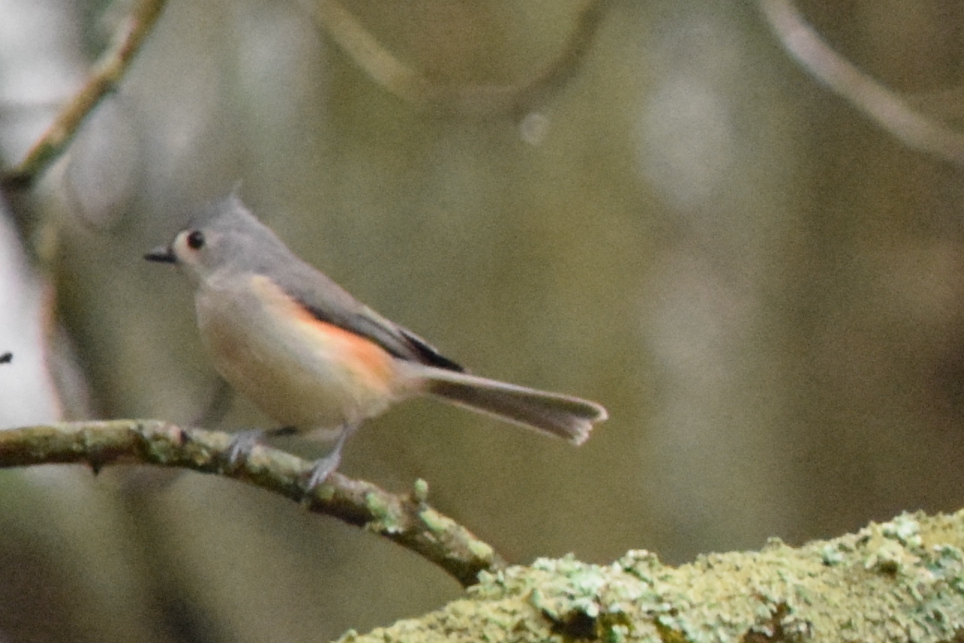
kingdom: Animalia
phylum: Chordata
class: Aves
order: Passeriformes
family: Paridae
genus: Baeolophus
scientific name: Baeolophus bicolor
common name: Tufted titmouse
